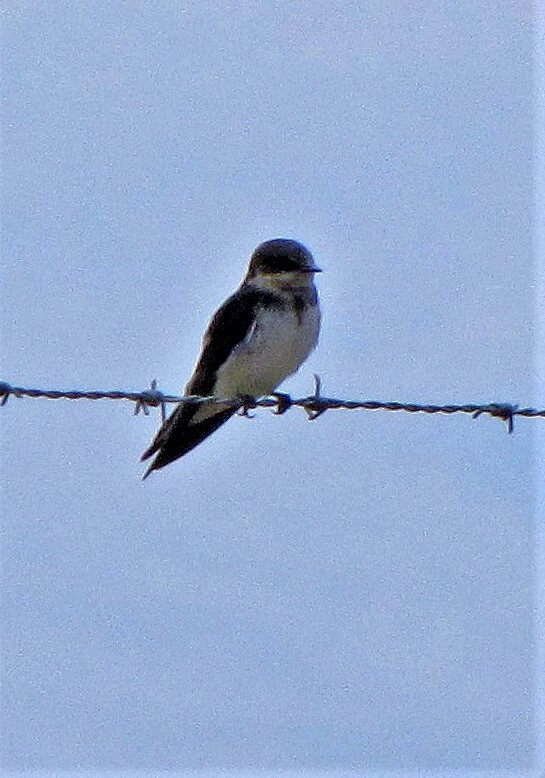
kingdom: Animalia
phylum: Chordata
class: Aves
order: Passeriformes
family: Hirundinidae
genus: Riparia
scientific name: Riparia riparia
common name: Sand martin
